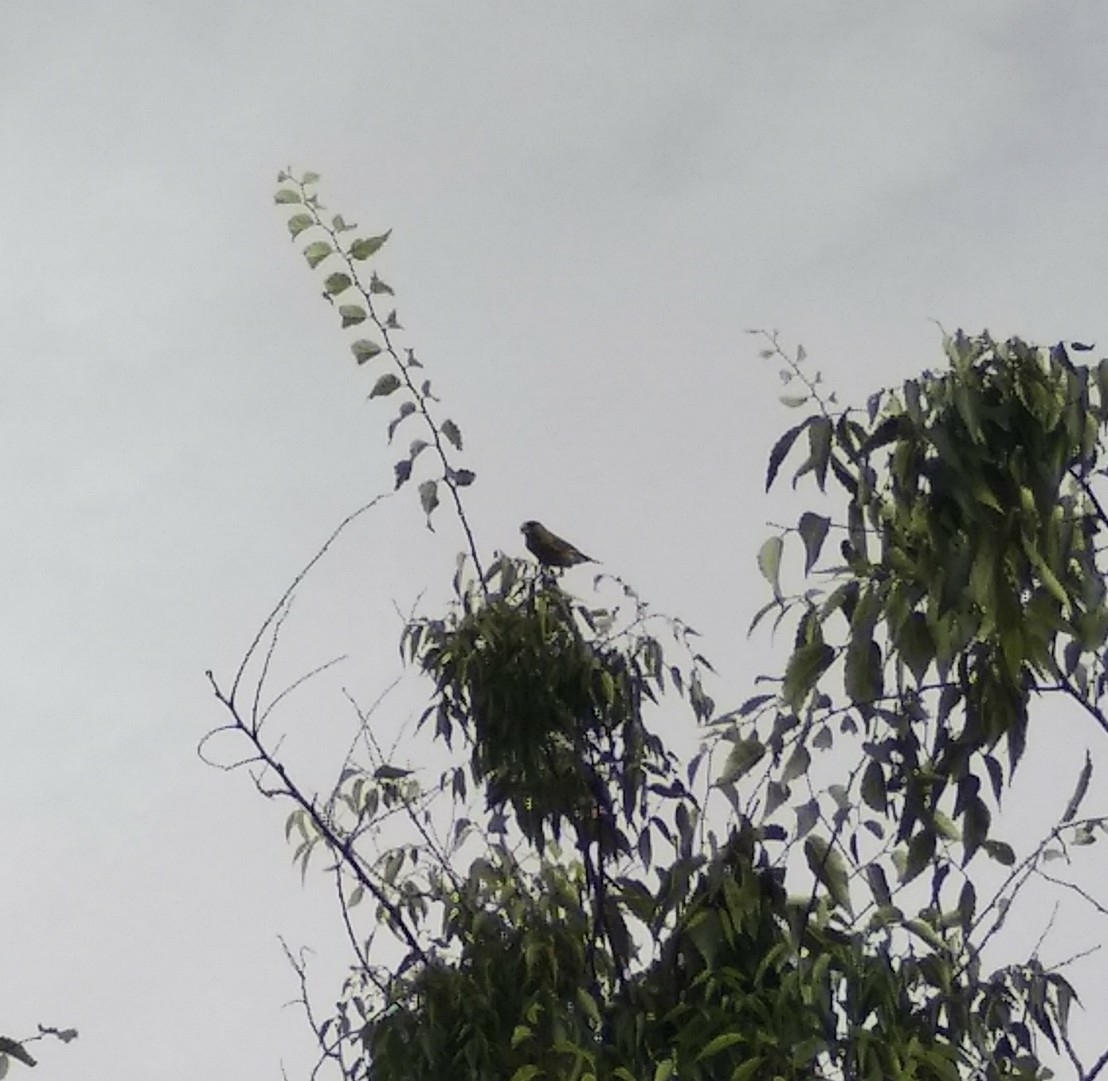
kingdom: Plantae
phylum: Tracheophyta
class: Liliopsida
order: Poales
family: Poaceae
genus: Chloris
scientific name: Chloris chloris
